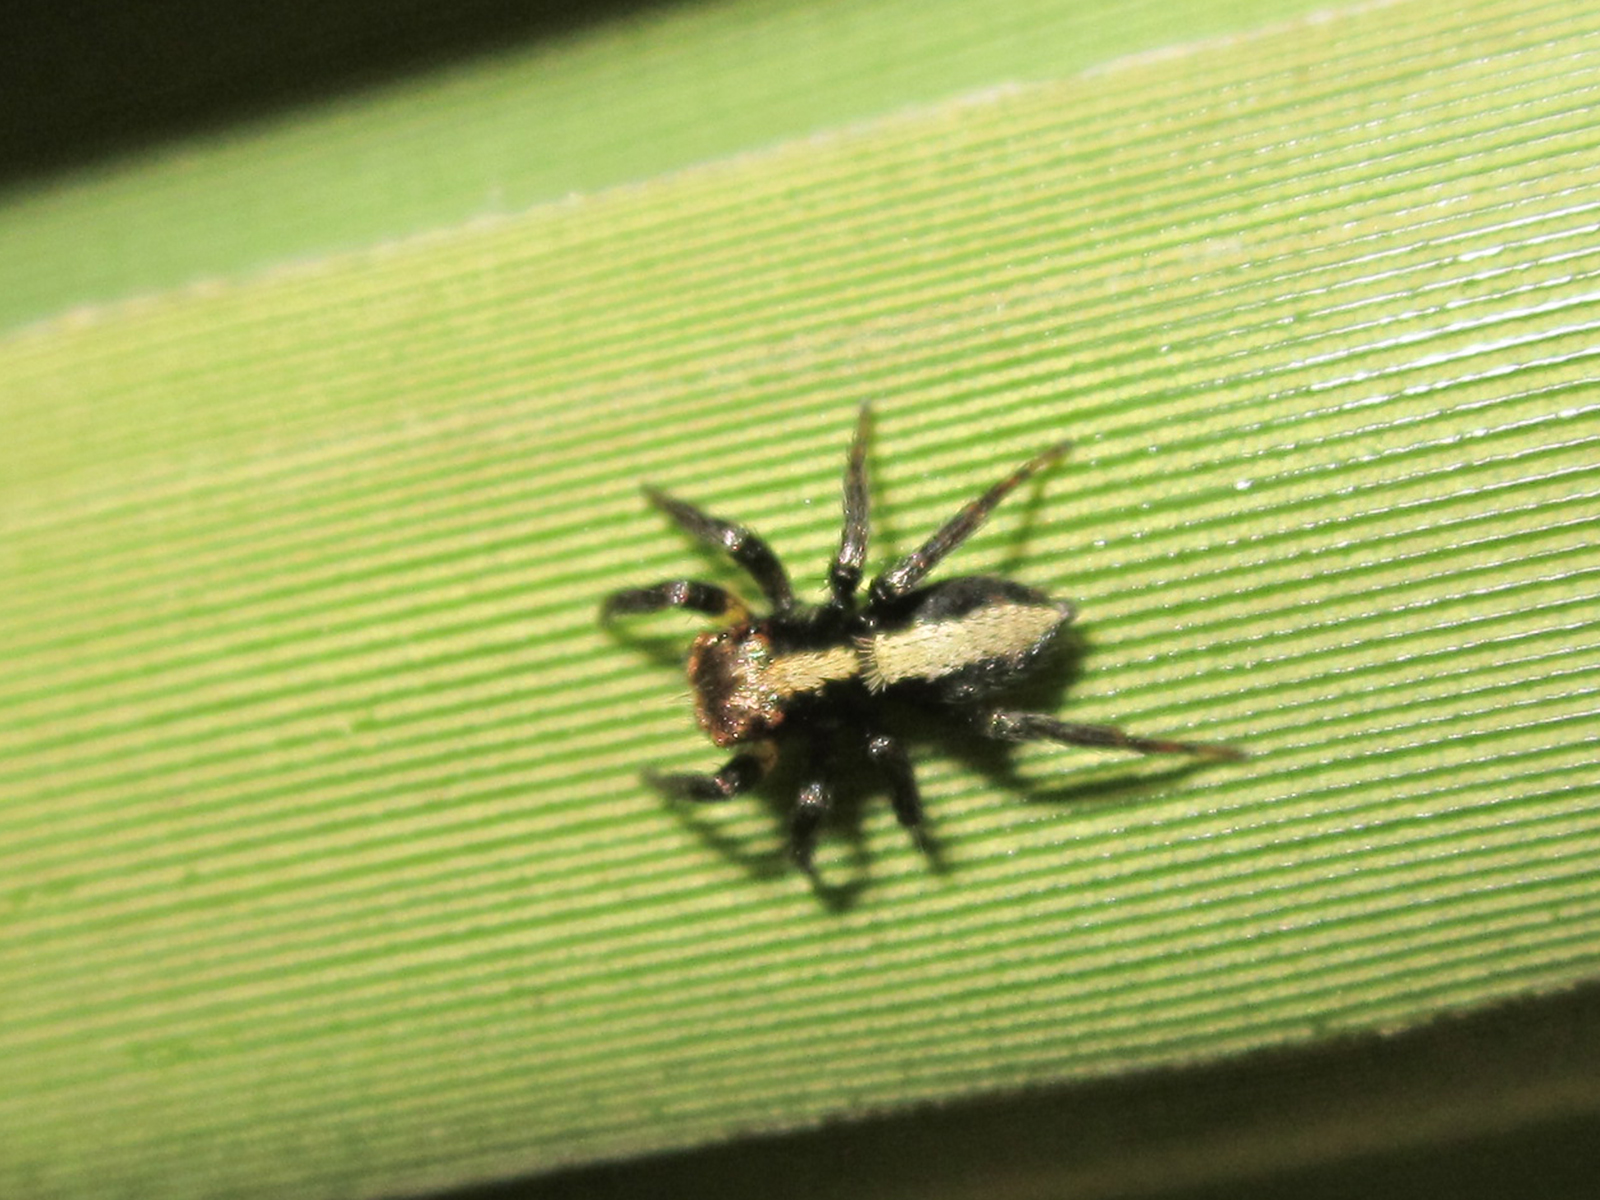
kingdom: Animalia
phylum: Arthropoda
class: Arachnida
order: Araneae
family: Salticidae
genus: Saphrys
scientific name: Saphrys rusticana
